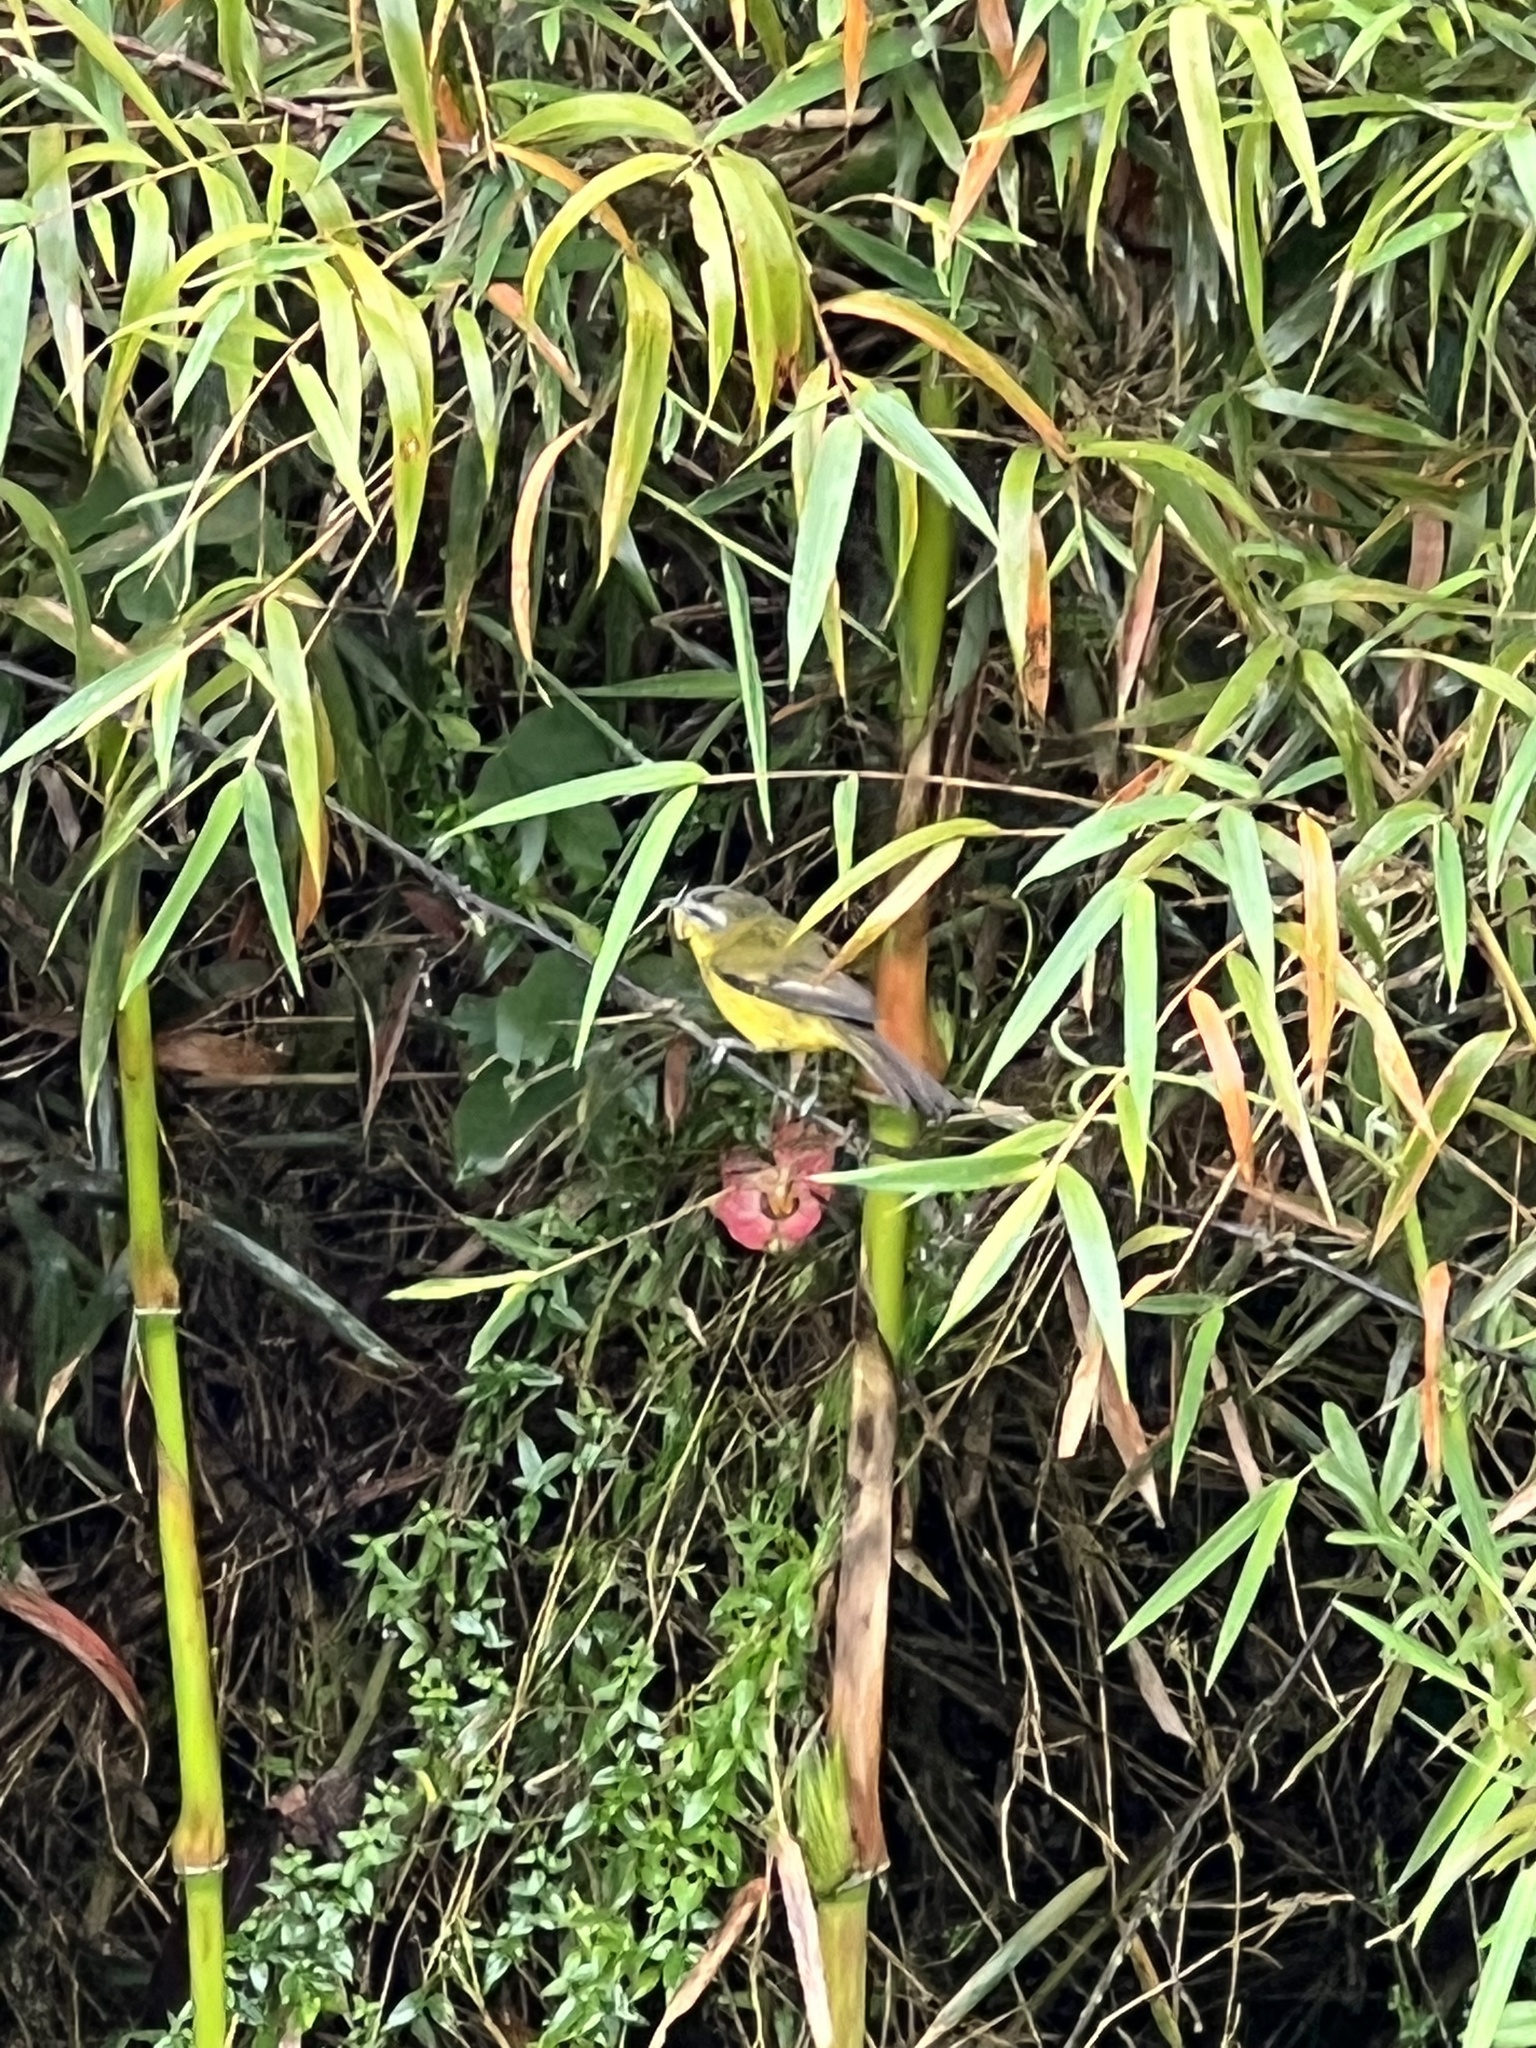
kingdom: Animalia
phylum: Chordata
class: Aves
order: Passeriformes
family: Thraupidae
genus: Thlypopsis
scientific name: Thlypopsis superciliaris
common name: Superciliaried hemispingus
